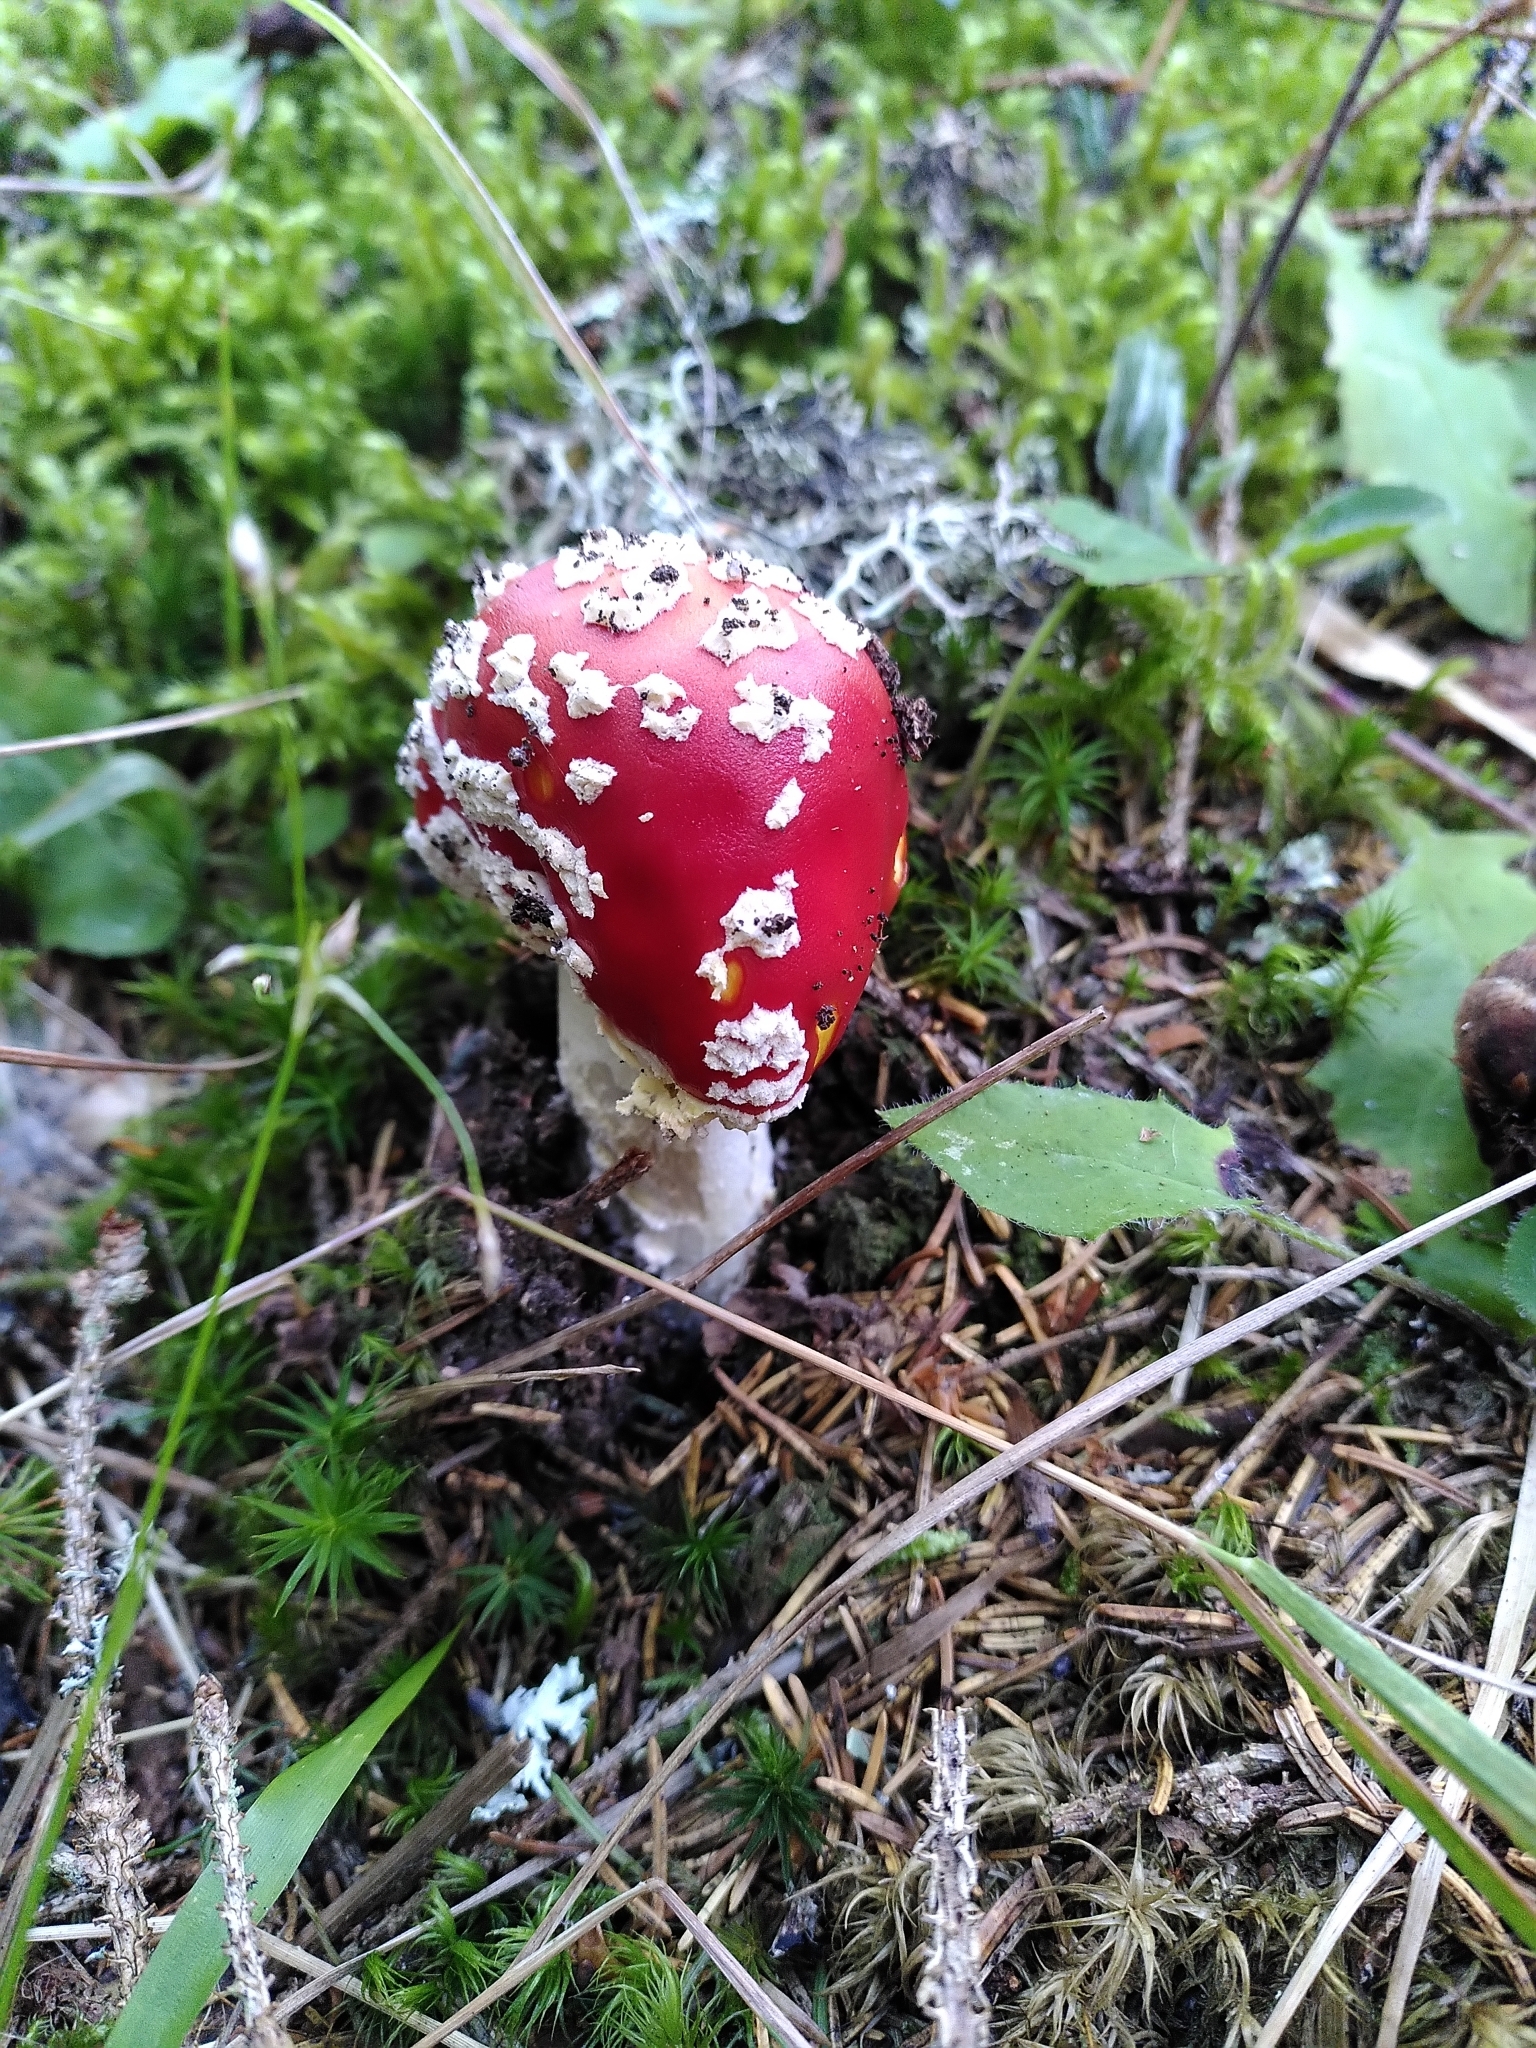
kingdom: Fungi
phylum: Basidiomycota
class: Agaricomycetes
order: Agaricales
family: Amanitaceae
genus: Amanita
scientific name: Amanita muscaria
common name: Fly agaric
